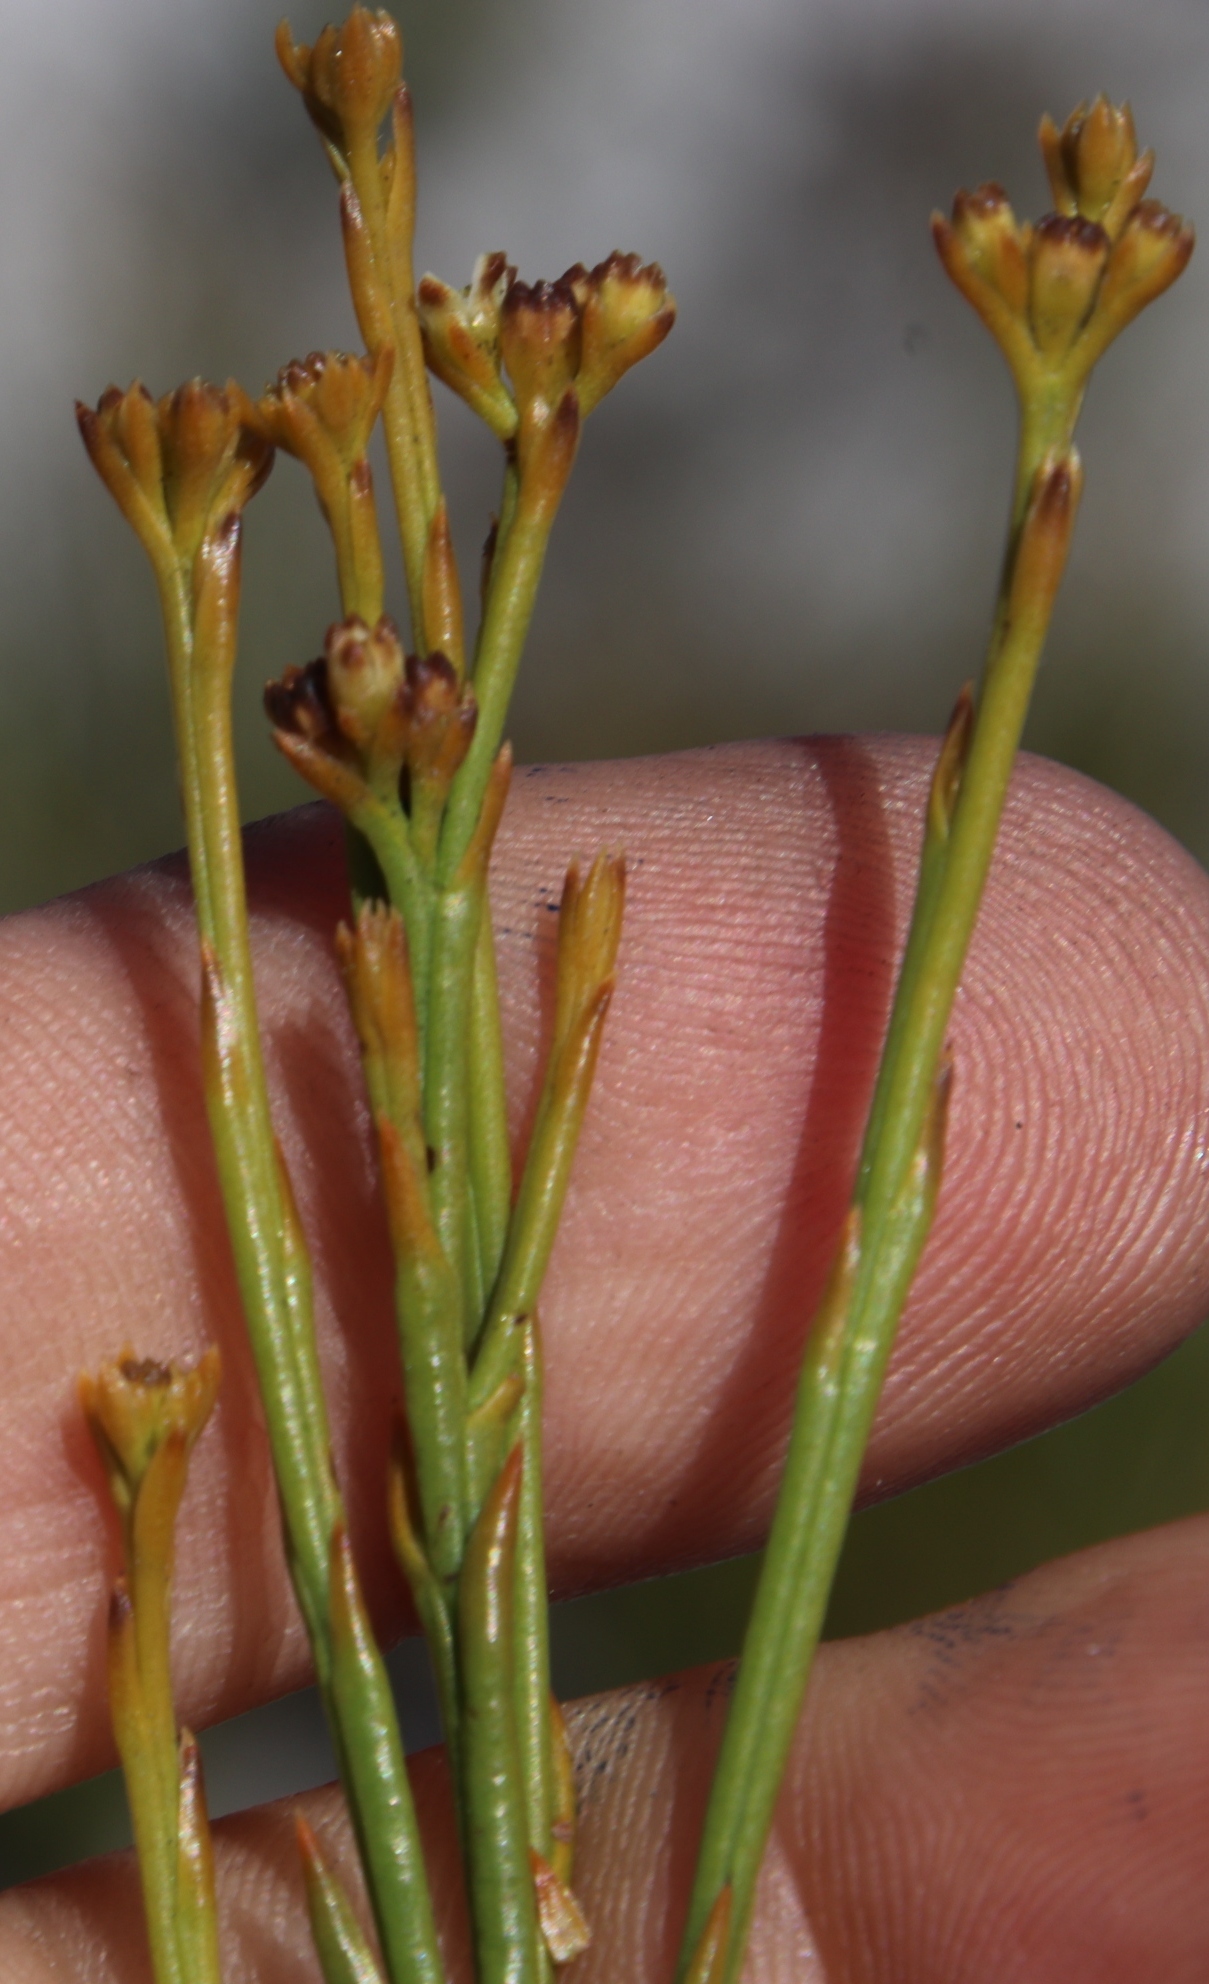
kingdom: Plantae
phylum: Tracheophyta
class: Magnoliopsida
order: Santalales
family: Thesiaceae
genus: Thesium
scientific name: Thesium nudicaule
